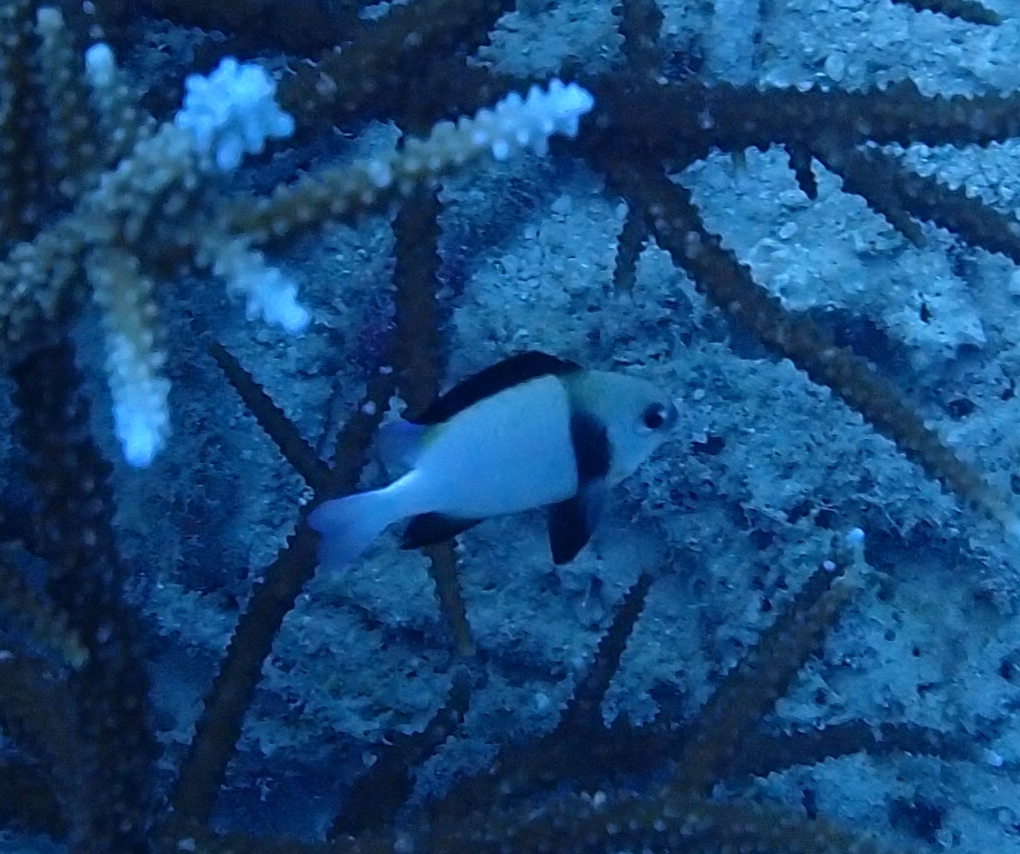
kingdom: Animalia
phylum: Chordata
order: Perciformes
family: Pomacentridae
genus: Dascyllus
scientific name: Dascyllus carneus
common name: Indian dascyllus
